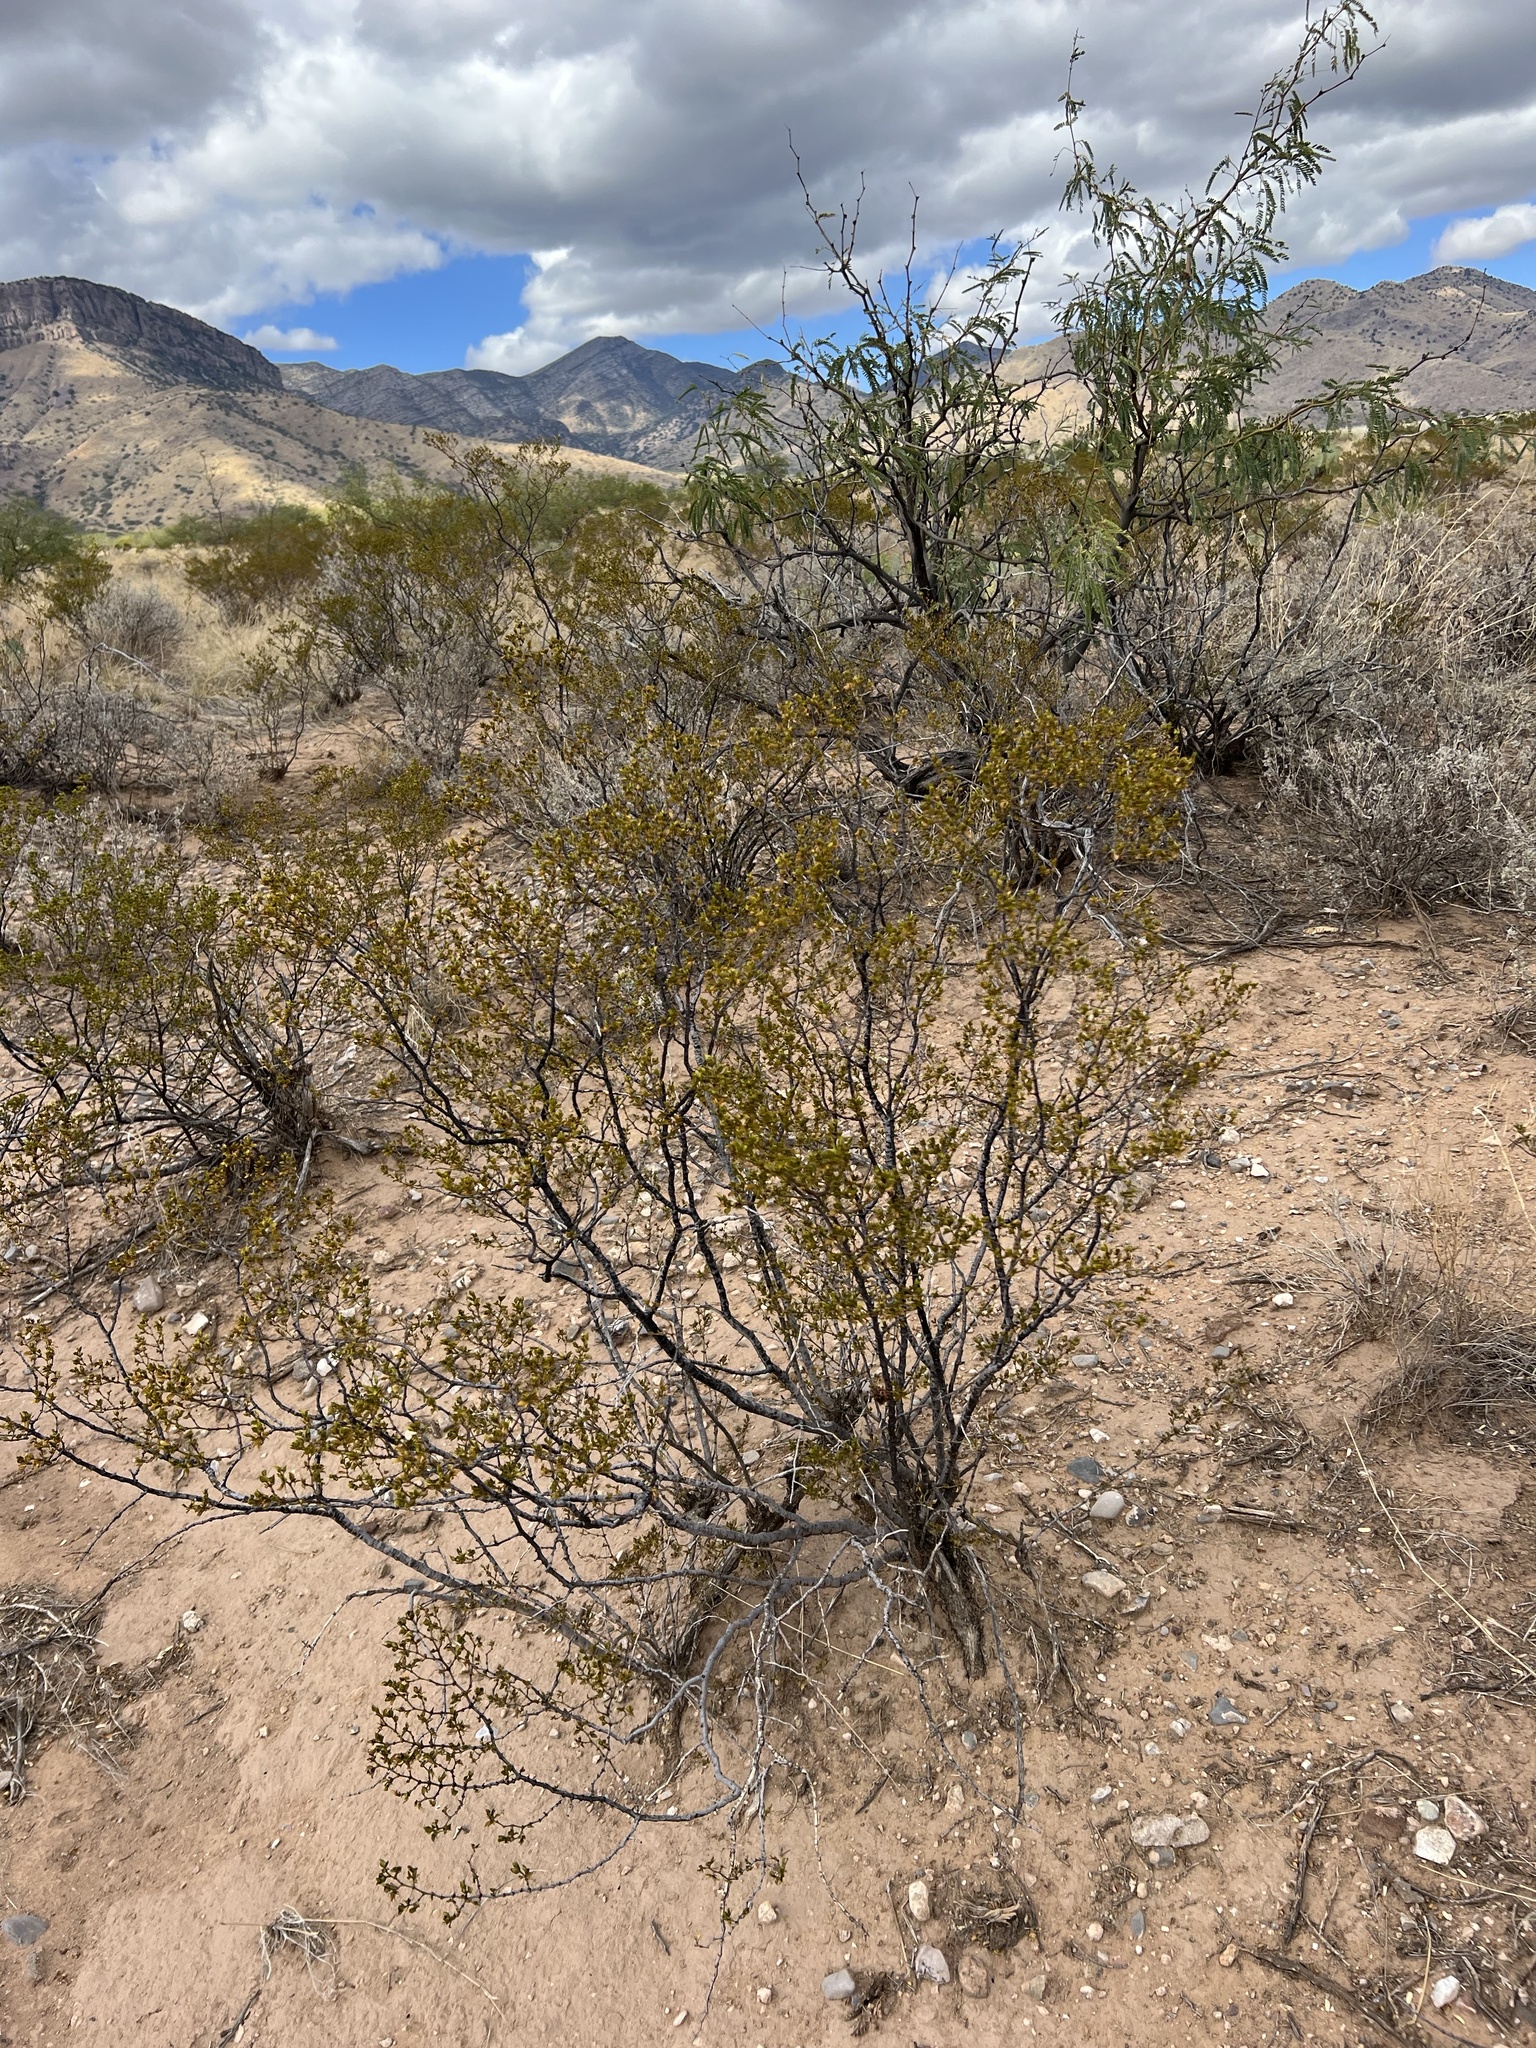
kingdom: Plantae
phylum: Tracheophyta
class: Magnoliopsida
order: Zygophyllales
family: Zygophyllaceae
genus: Larrea
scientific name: Larrea tridentata
